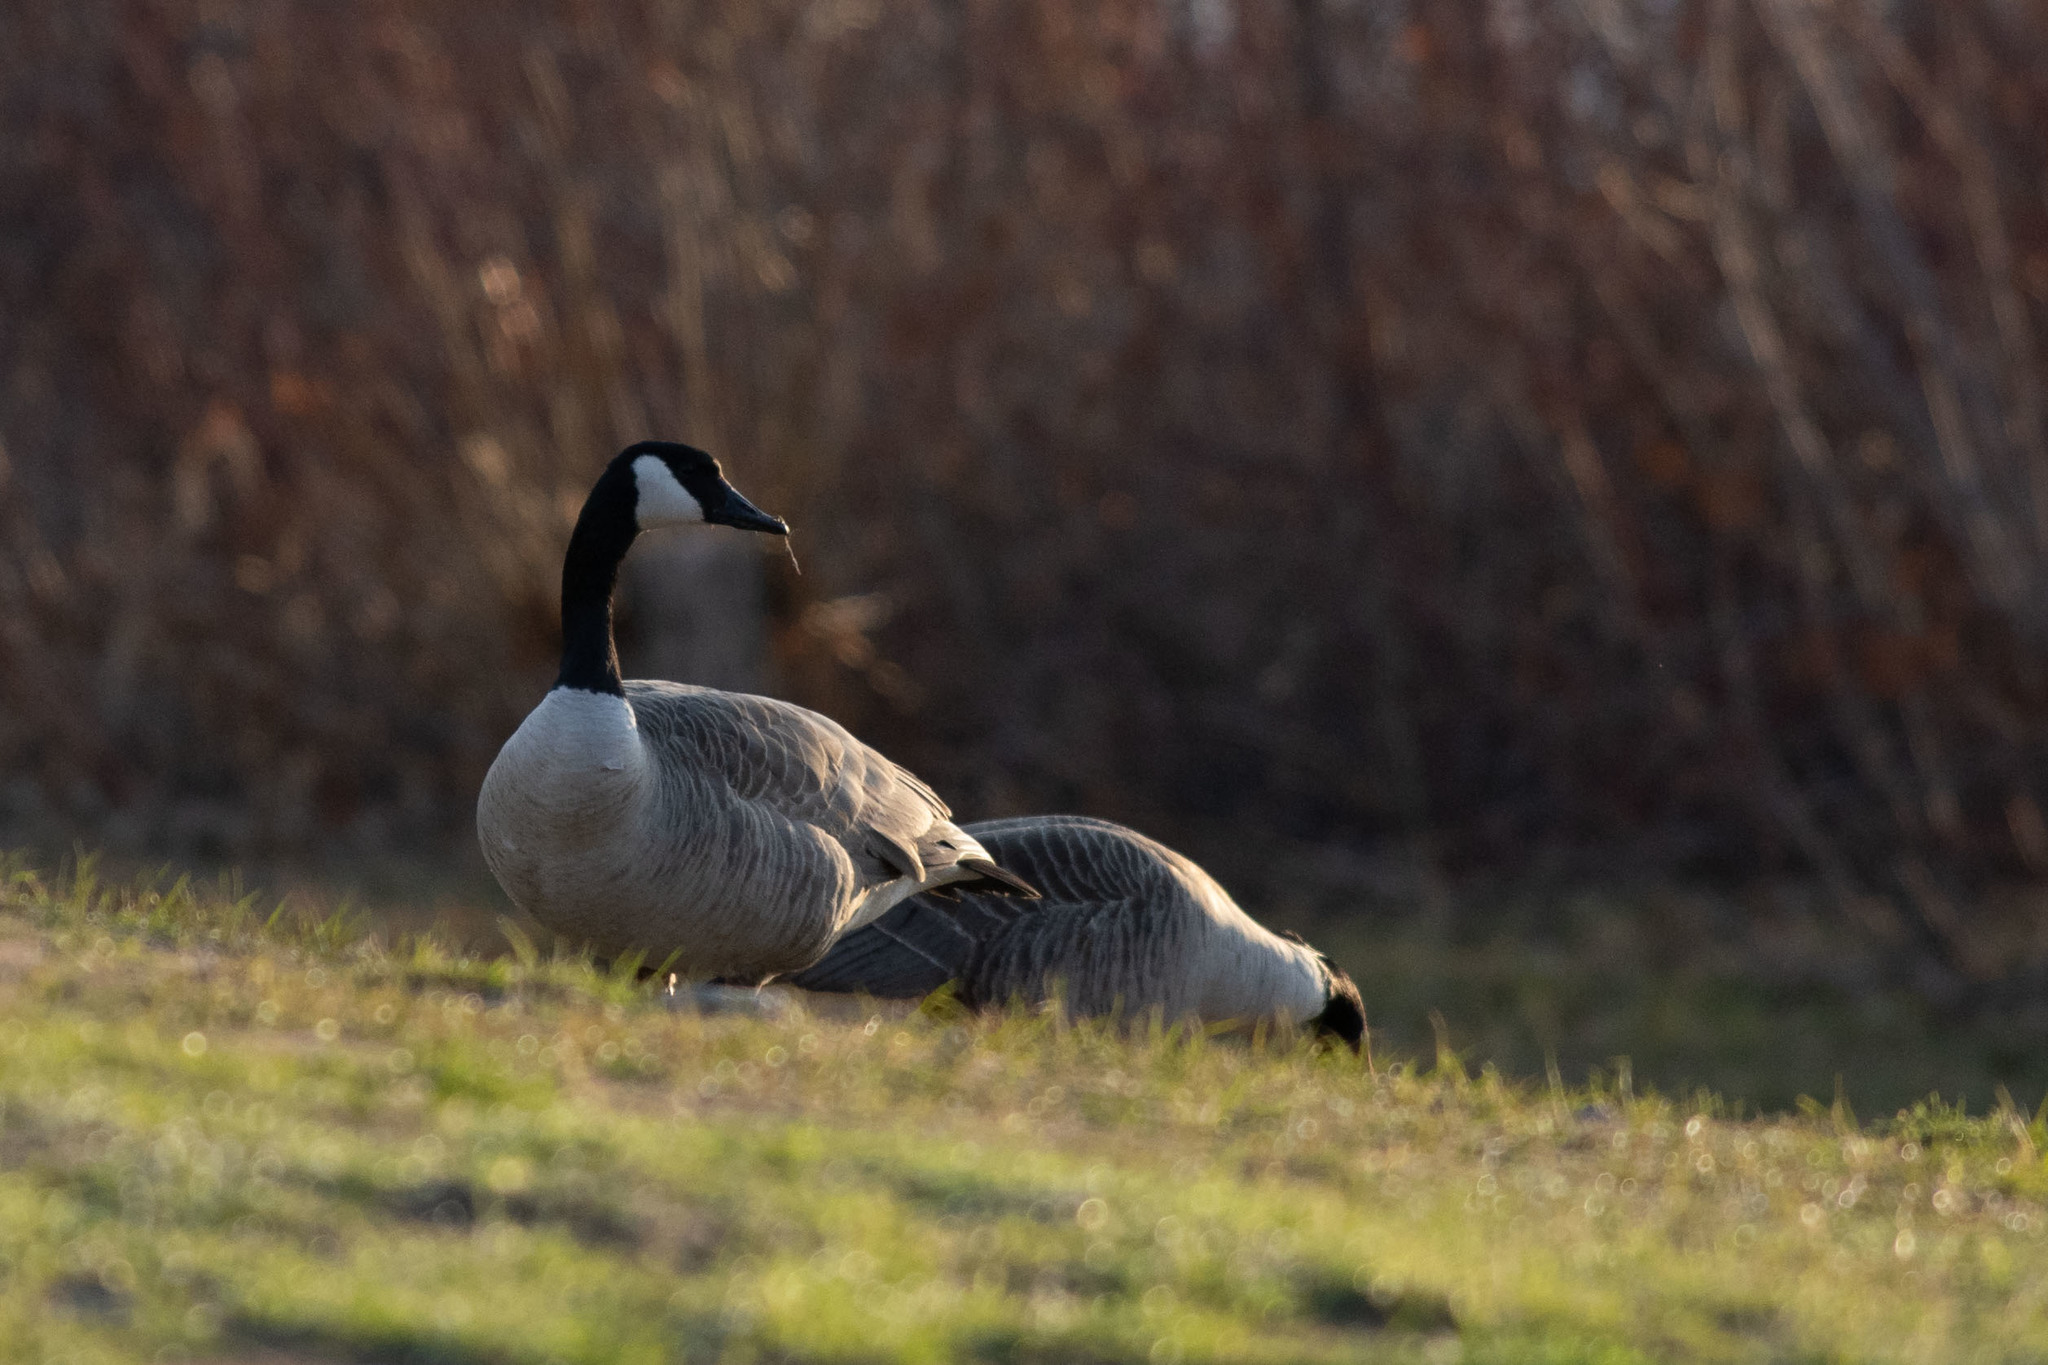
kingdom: Animalia
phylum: Chordata
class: Aves
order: Anseriformes
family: Anatidae
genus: Branta
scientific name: Branta canadensis
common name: Canada goose
